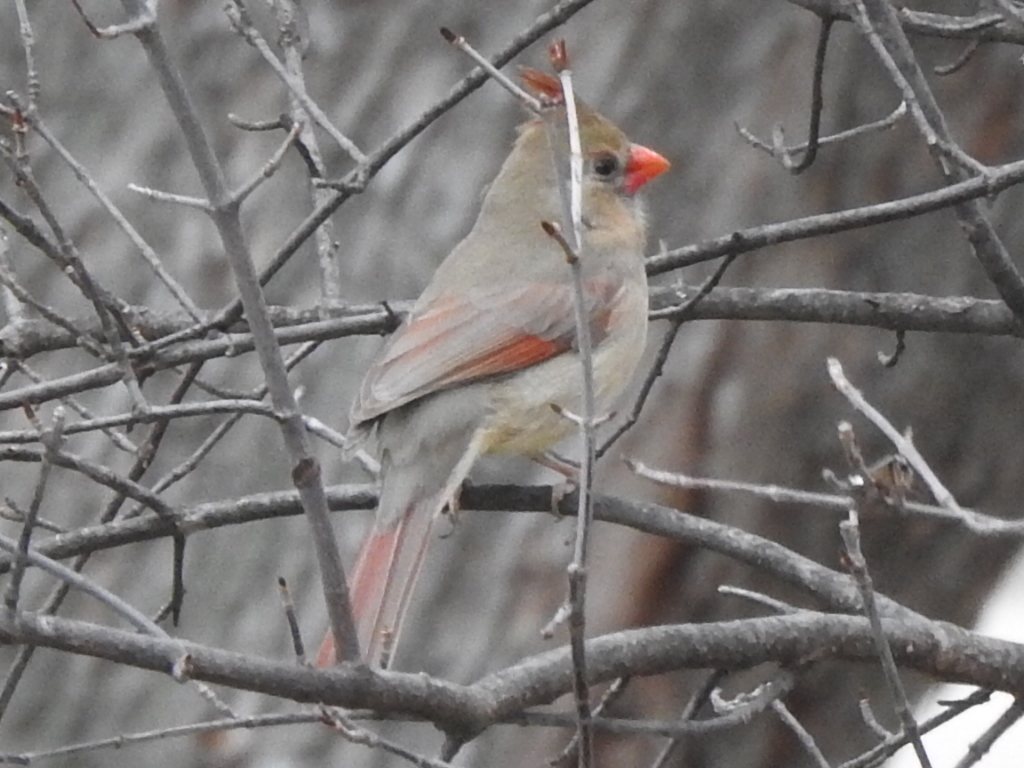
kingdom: Animalia
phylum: Chordata
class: Aves
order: Passeriformes
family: Cardinalidae
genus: Cardinalis
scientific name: Cardinalis cardinalis
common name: Northern cardinal
